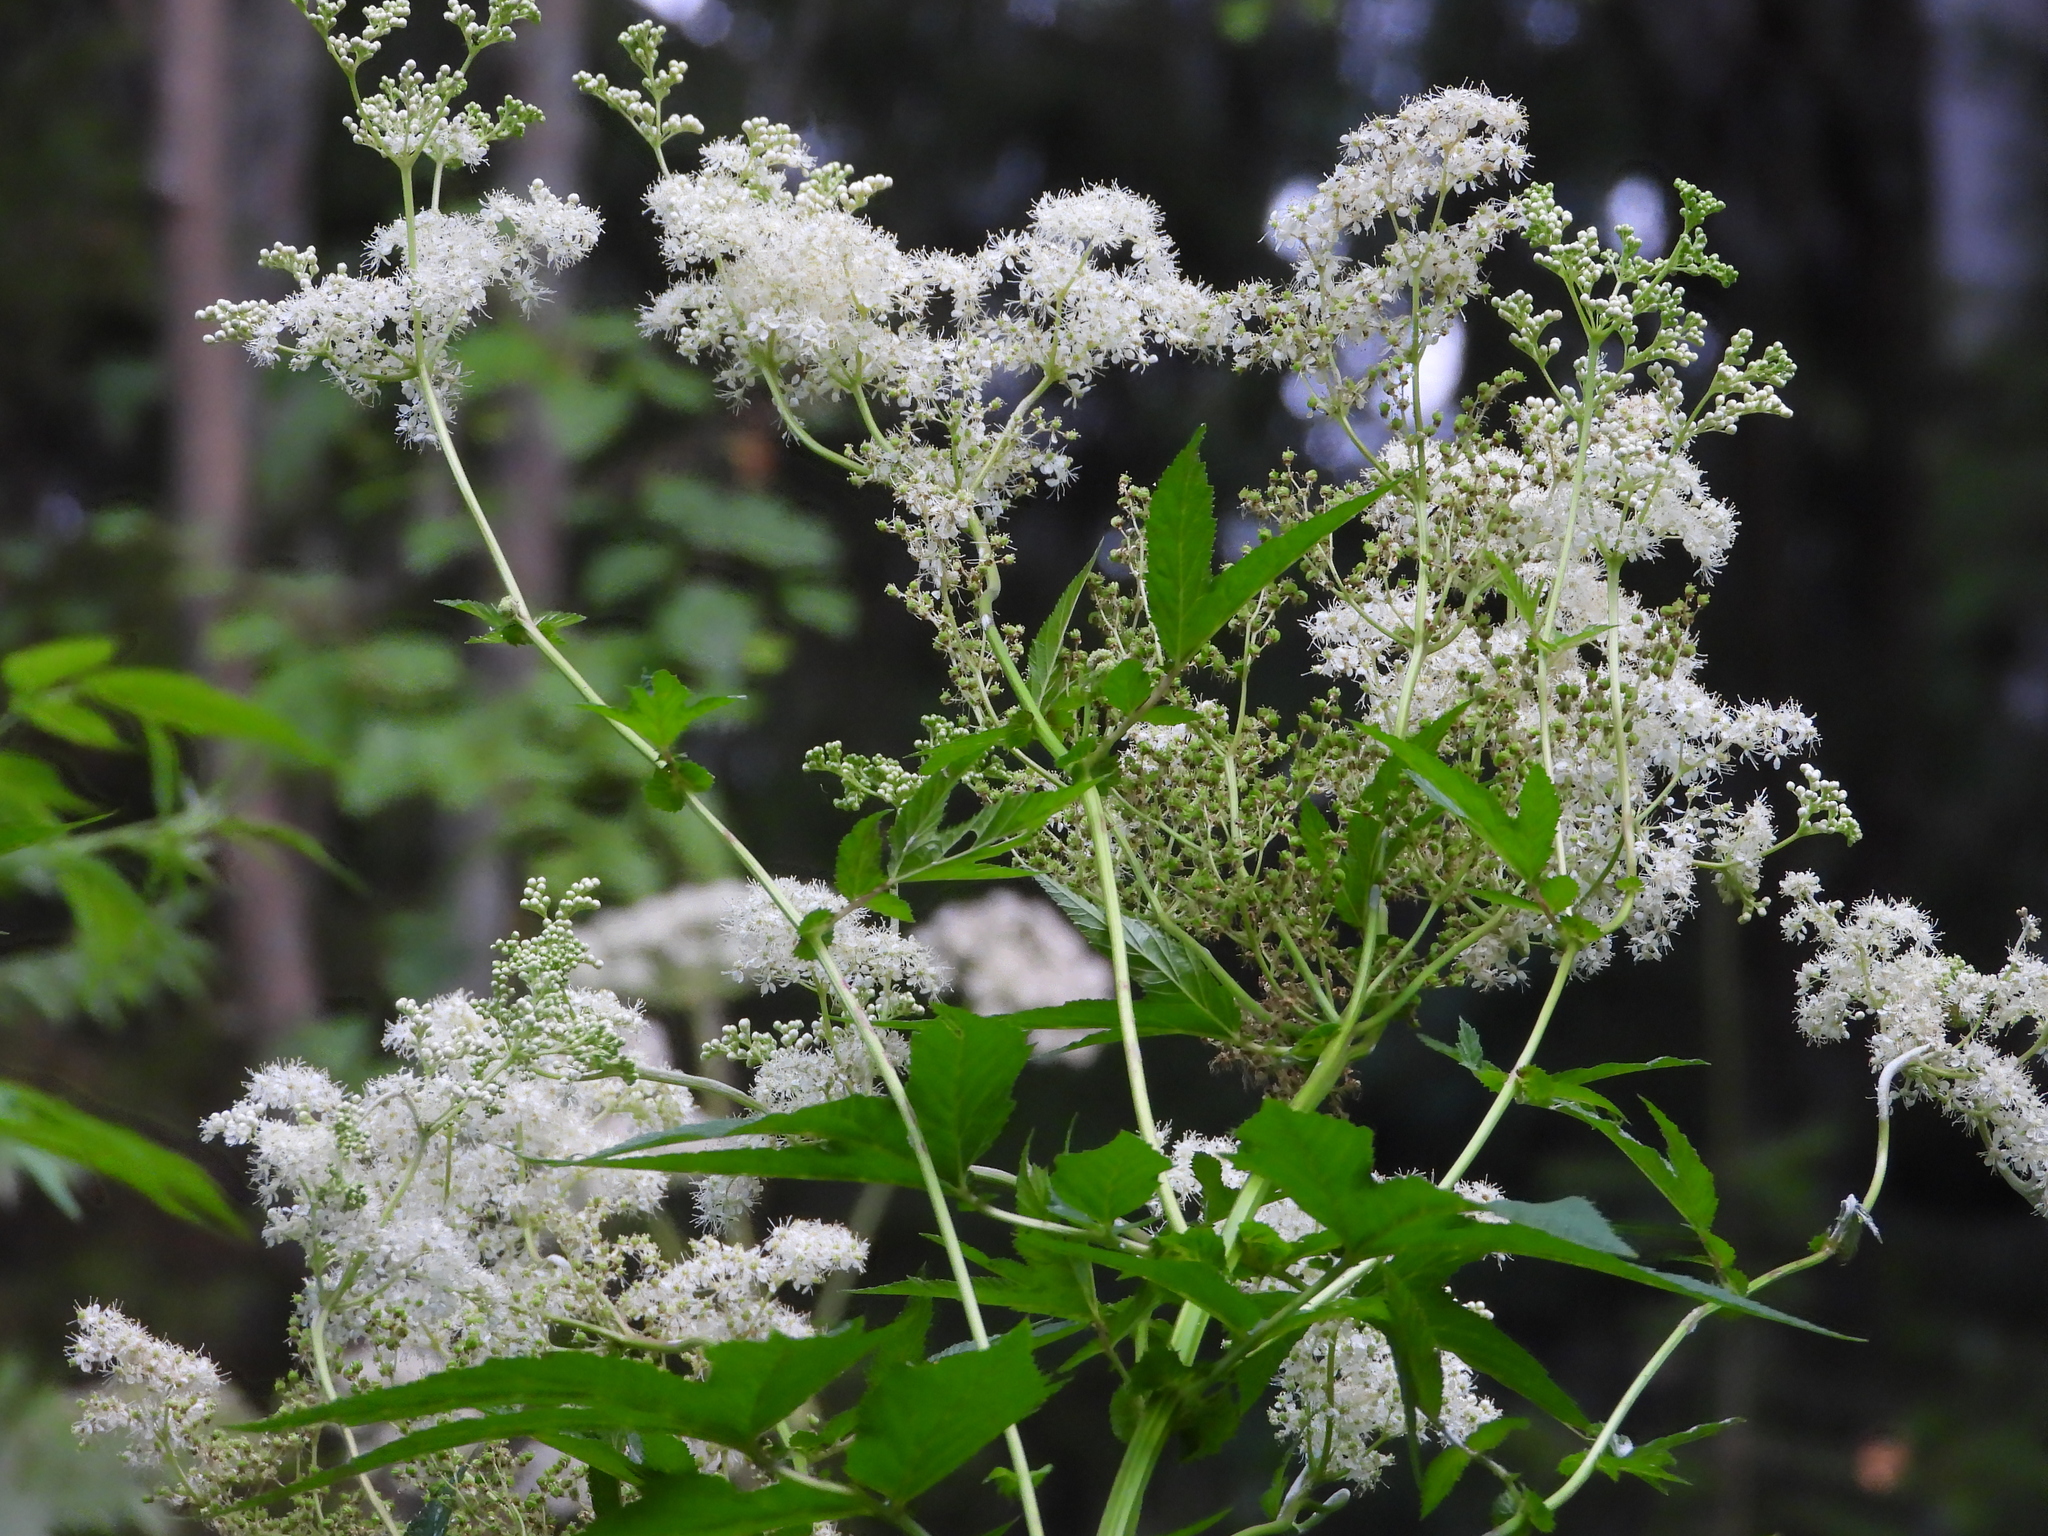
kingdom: Plantae
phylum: Tracheophyta
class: Magnoliopsida
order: Rosales
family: Rosaceae
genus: Filipendula
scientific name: Filipendula ulmaria
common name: Meadowsweet
